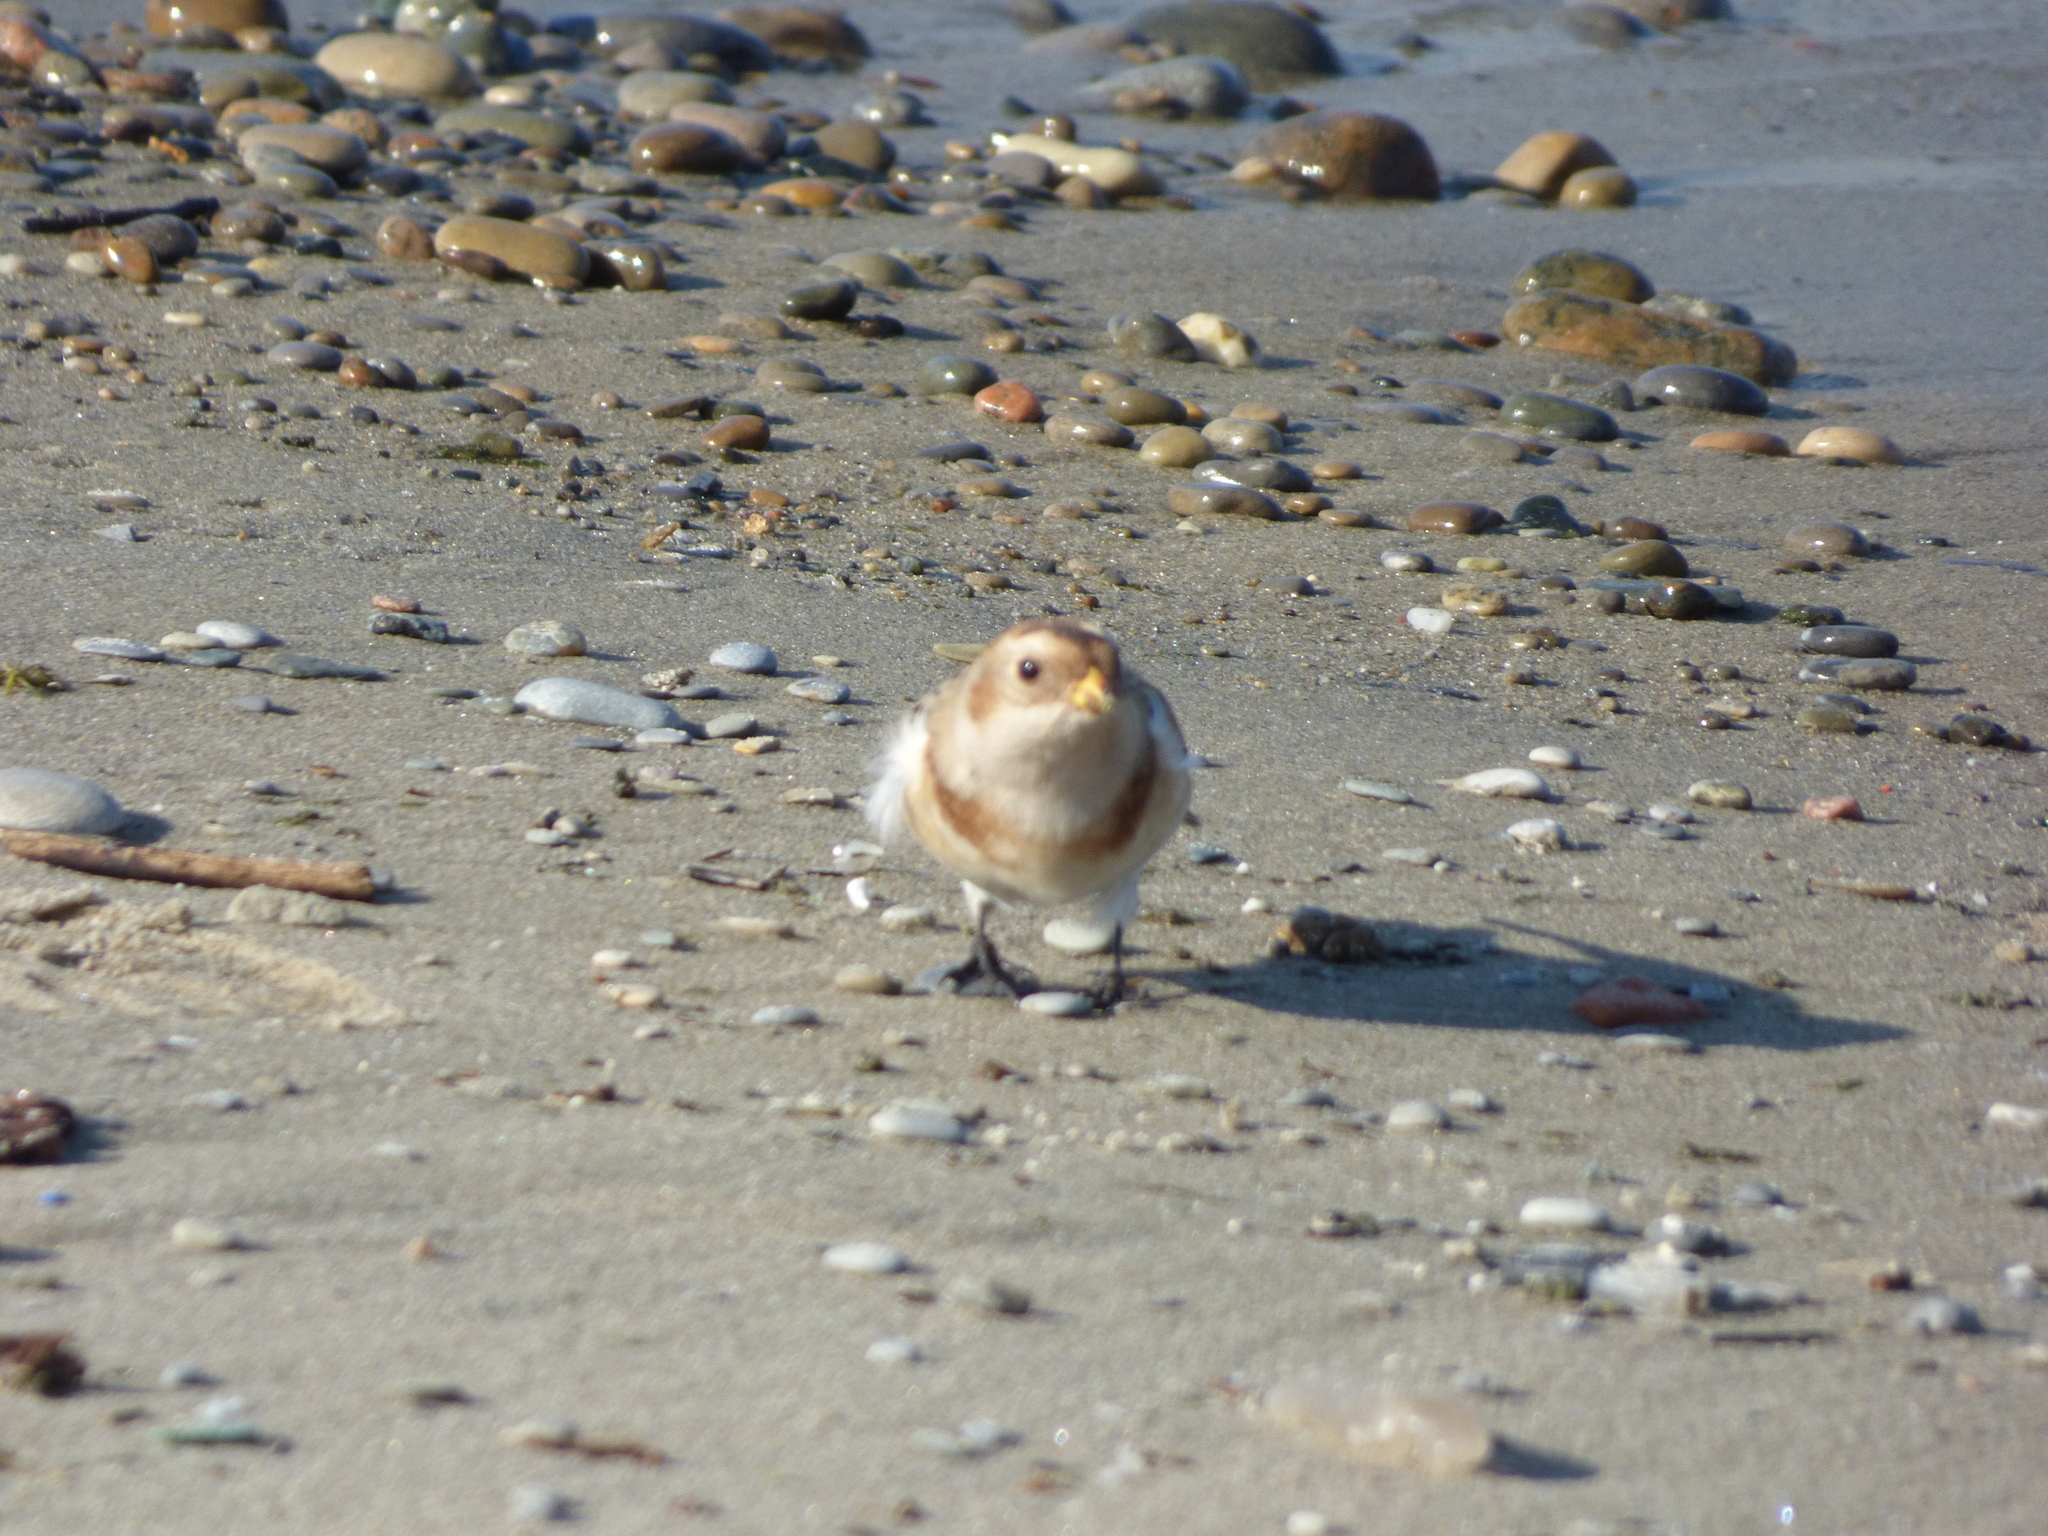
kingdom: Animalia
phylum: Chordata
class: Aves
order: Passeriformes
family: Calcariidae
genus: Plectrophenax
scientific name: Plectrophenax nivalis
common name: Snow bunting
